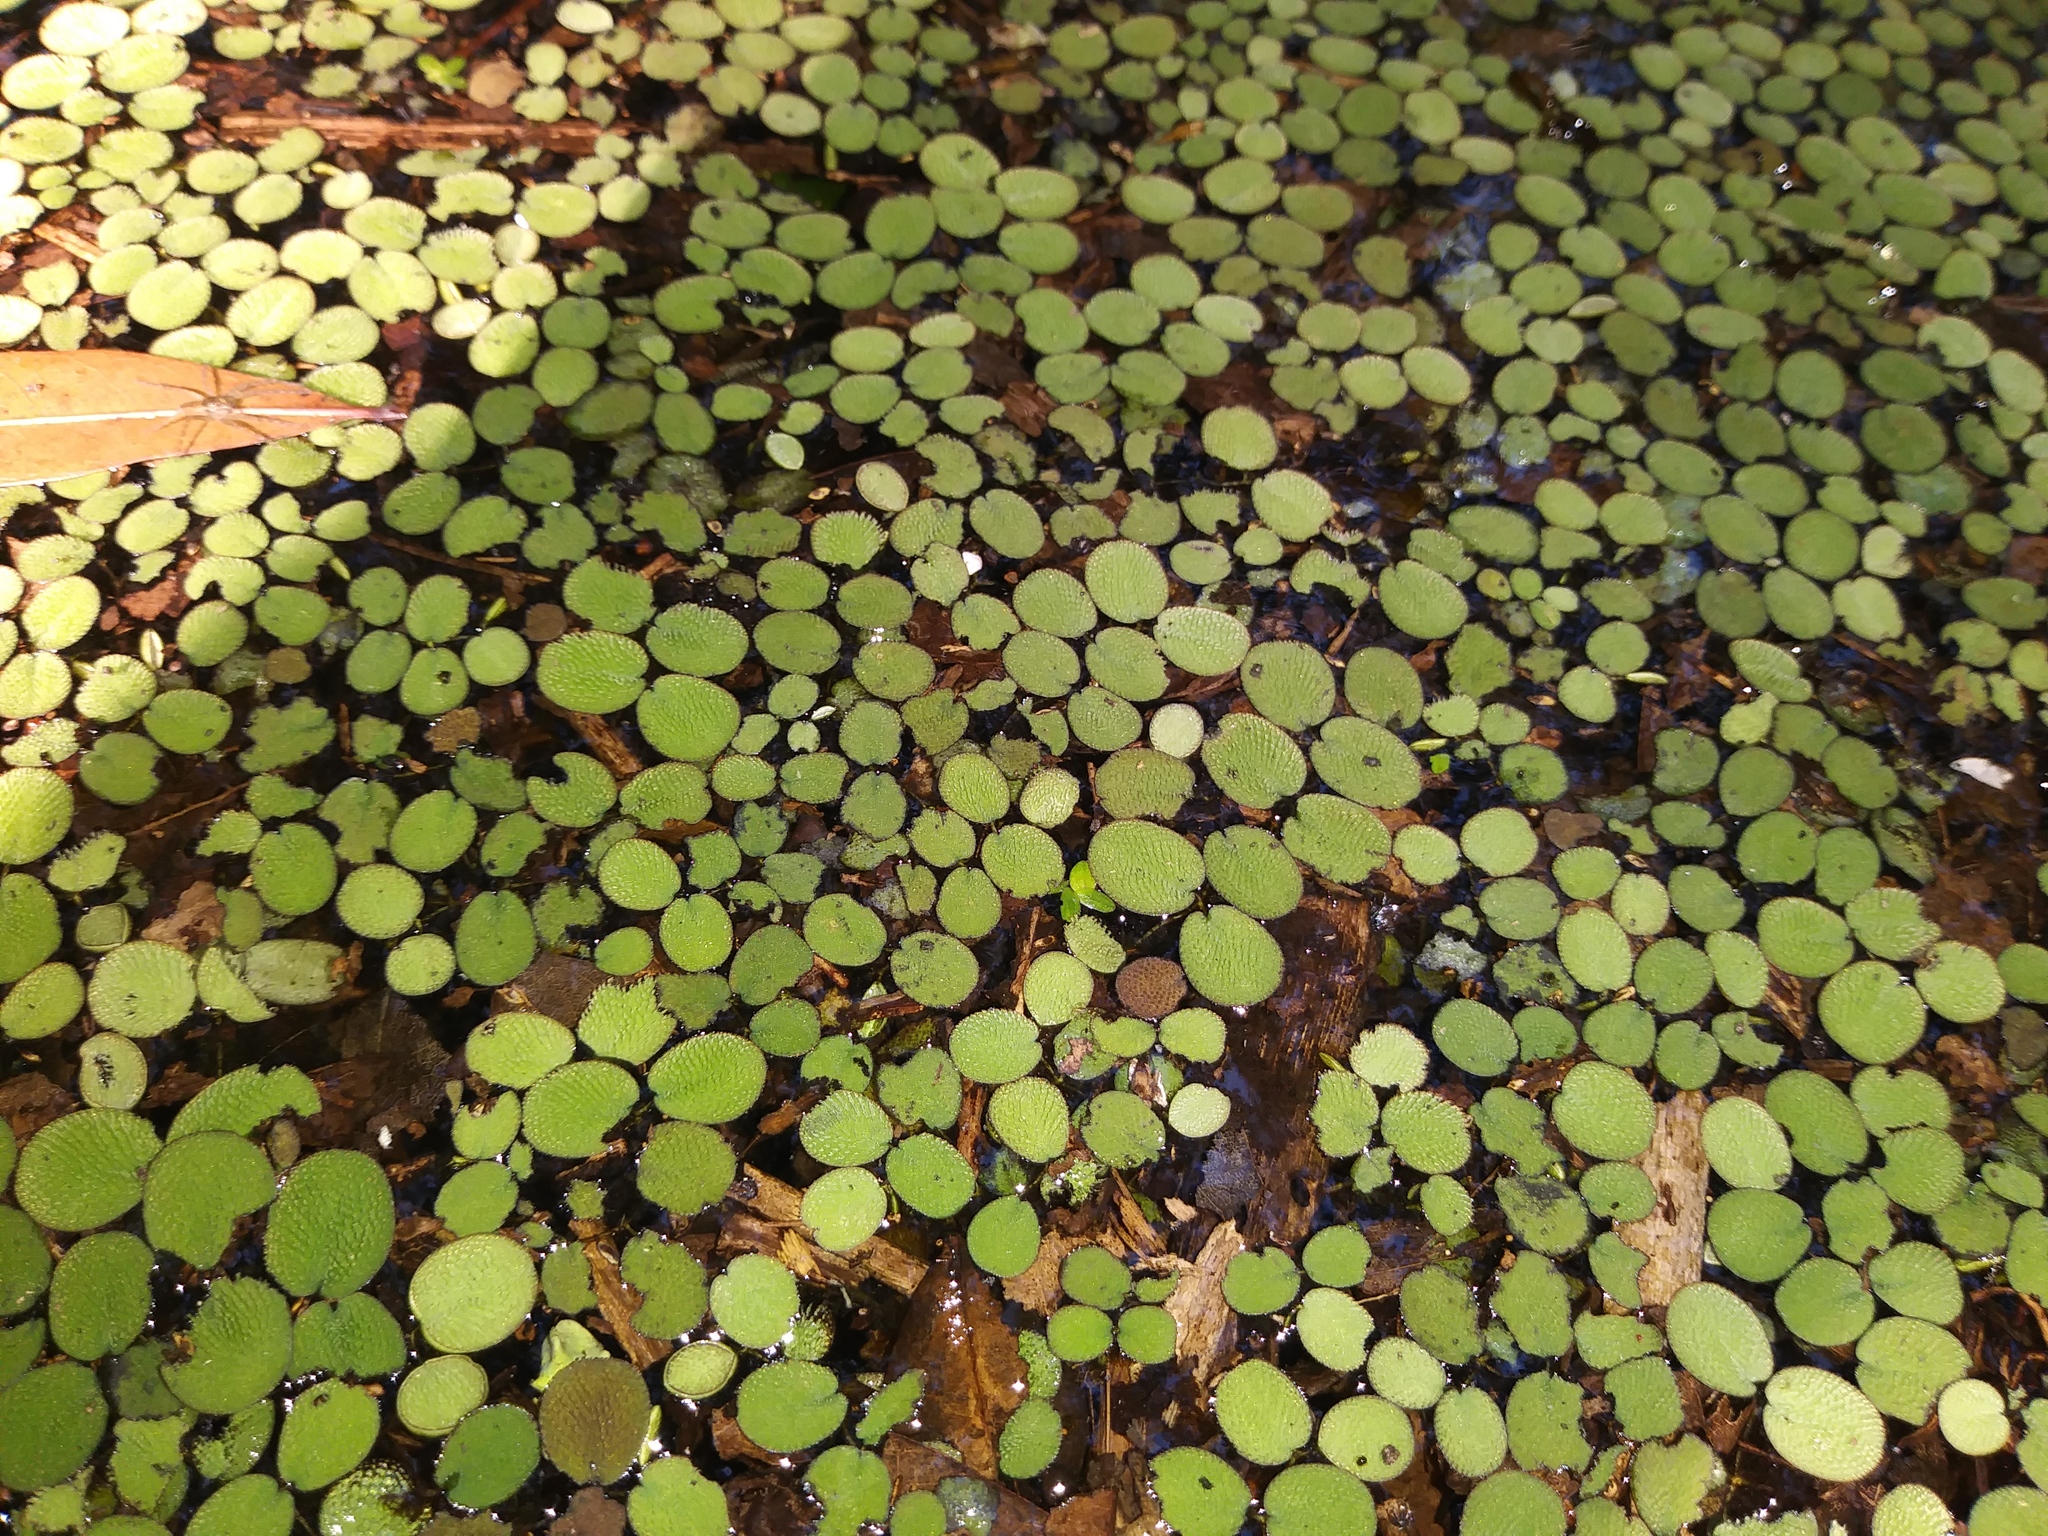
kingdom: Plantae
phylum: Tracheophyta
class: Polypodiopsida
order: Salviniales
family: Salviniaceae
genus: Salvinia
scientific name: Salvinia minima
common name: Water spangles
